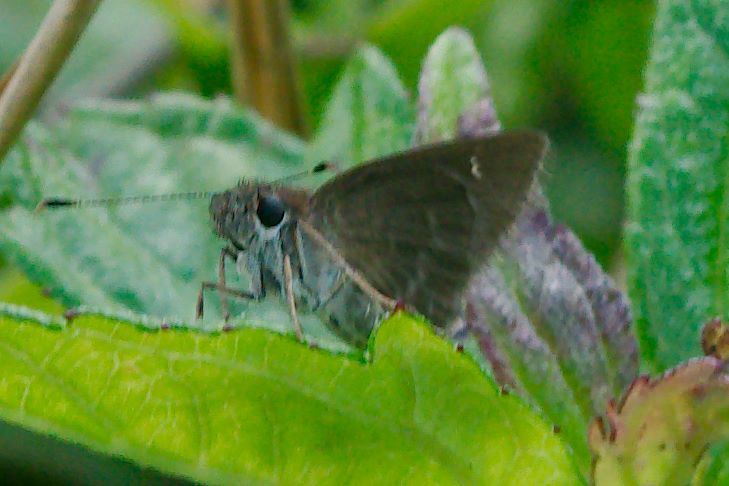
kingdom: Animalia
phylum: Arthropoda
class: Insecta
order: Lepidoptera
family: Hesperiidae
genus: Cymaenes
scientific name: Cymaenes tripunctus
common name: Dingy dotted skipper
